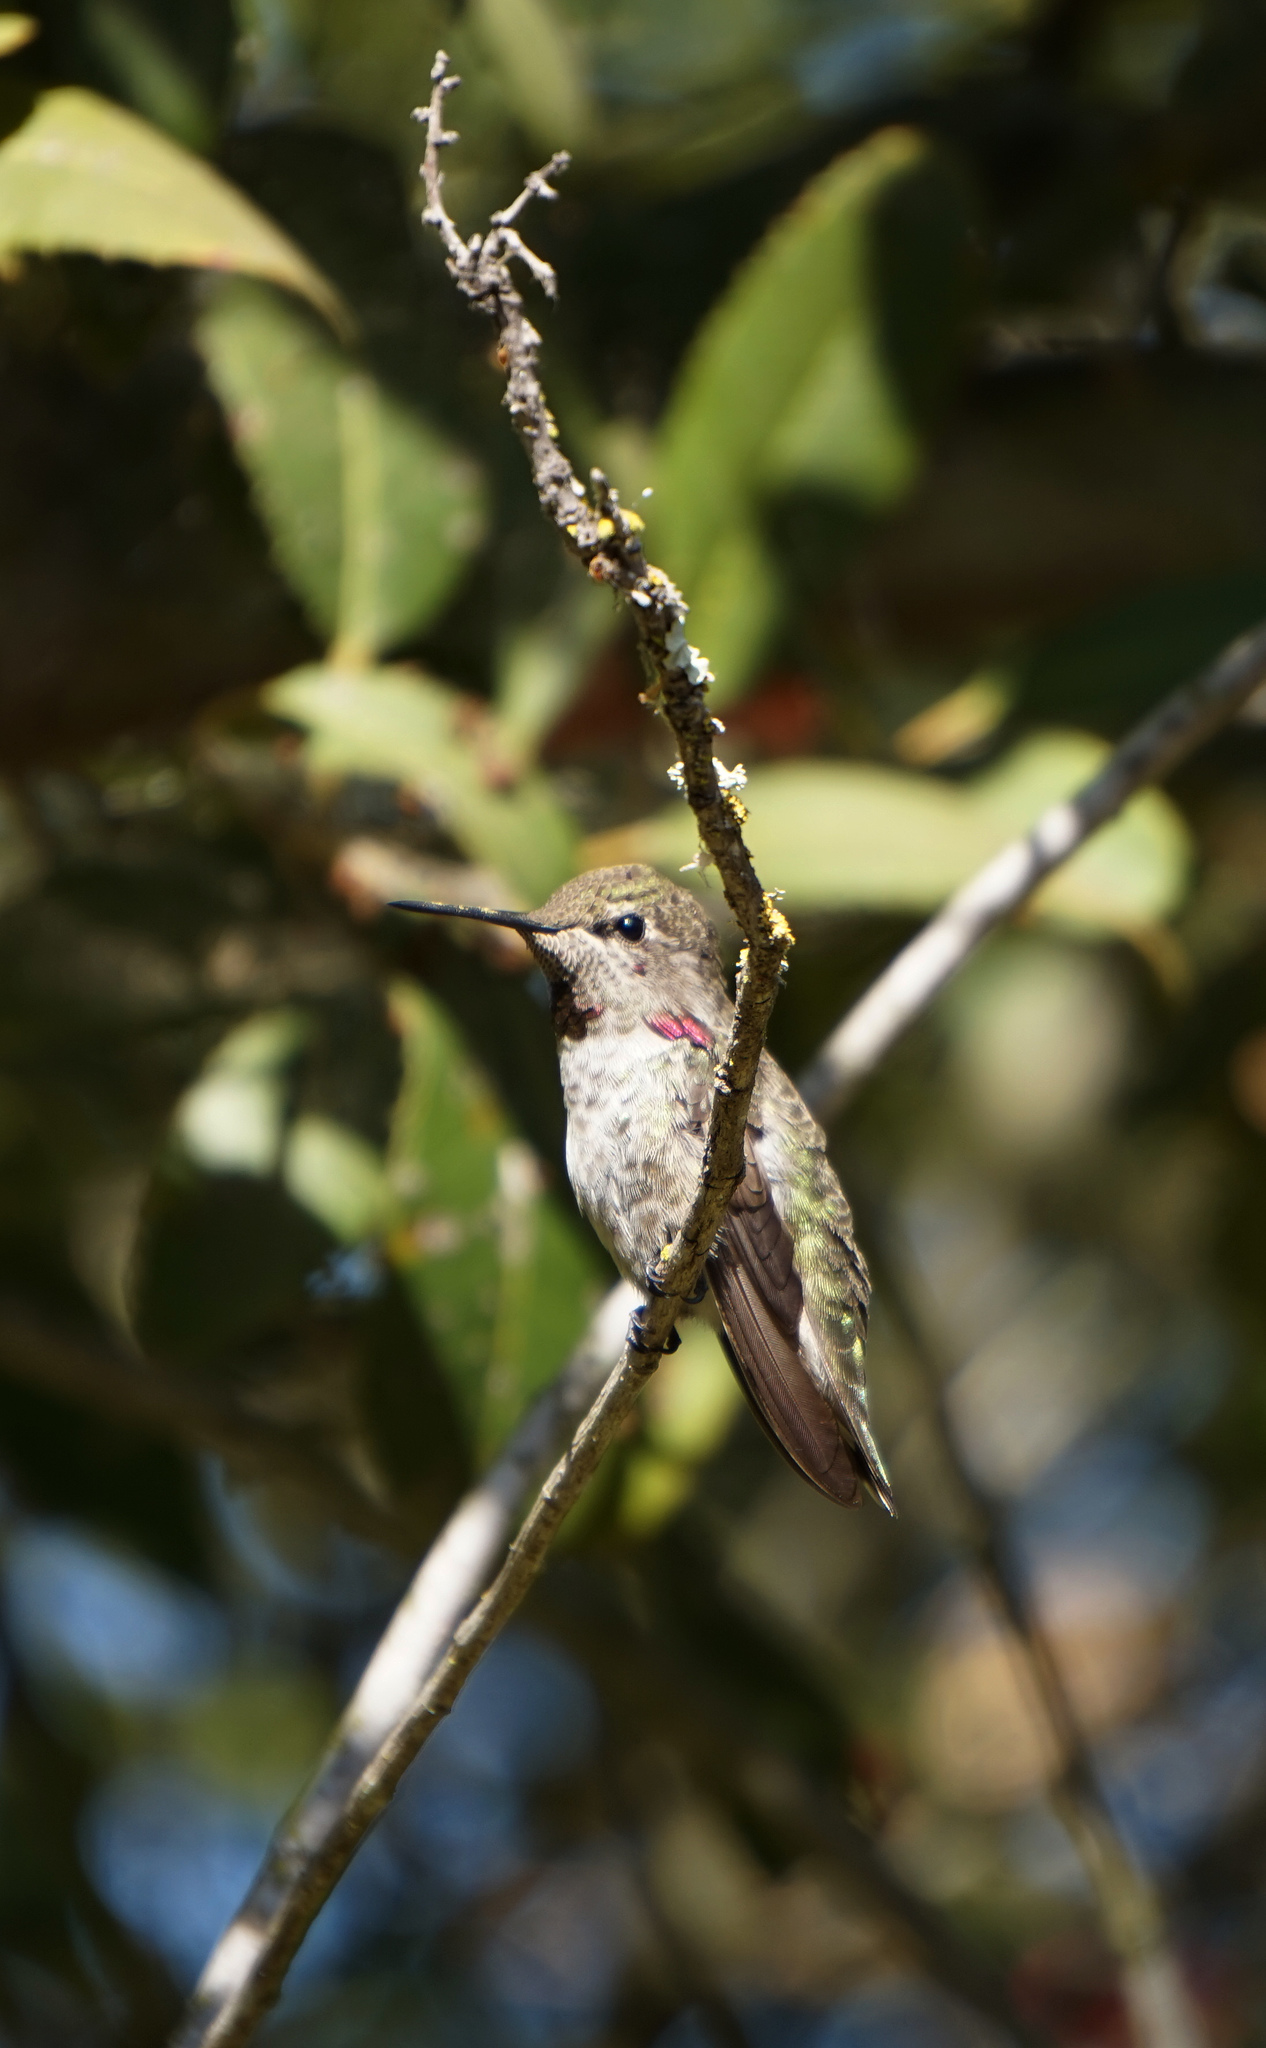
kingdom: Animalia
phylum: Chordata
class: Aves
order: Apodiformes
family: Trochilidae
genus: Calypte
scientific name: Calypte anna
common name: Anna's hummingbird
